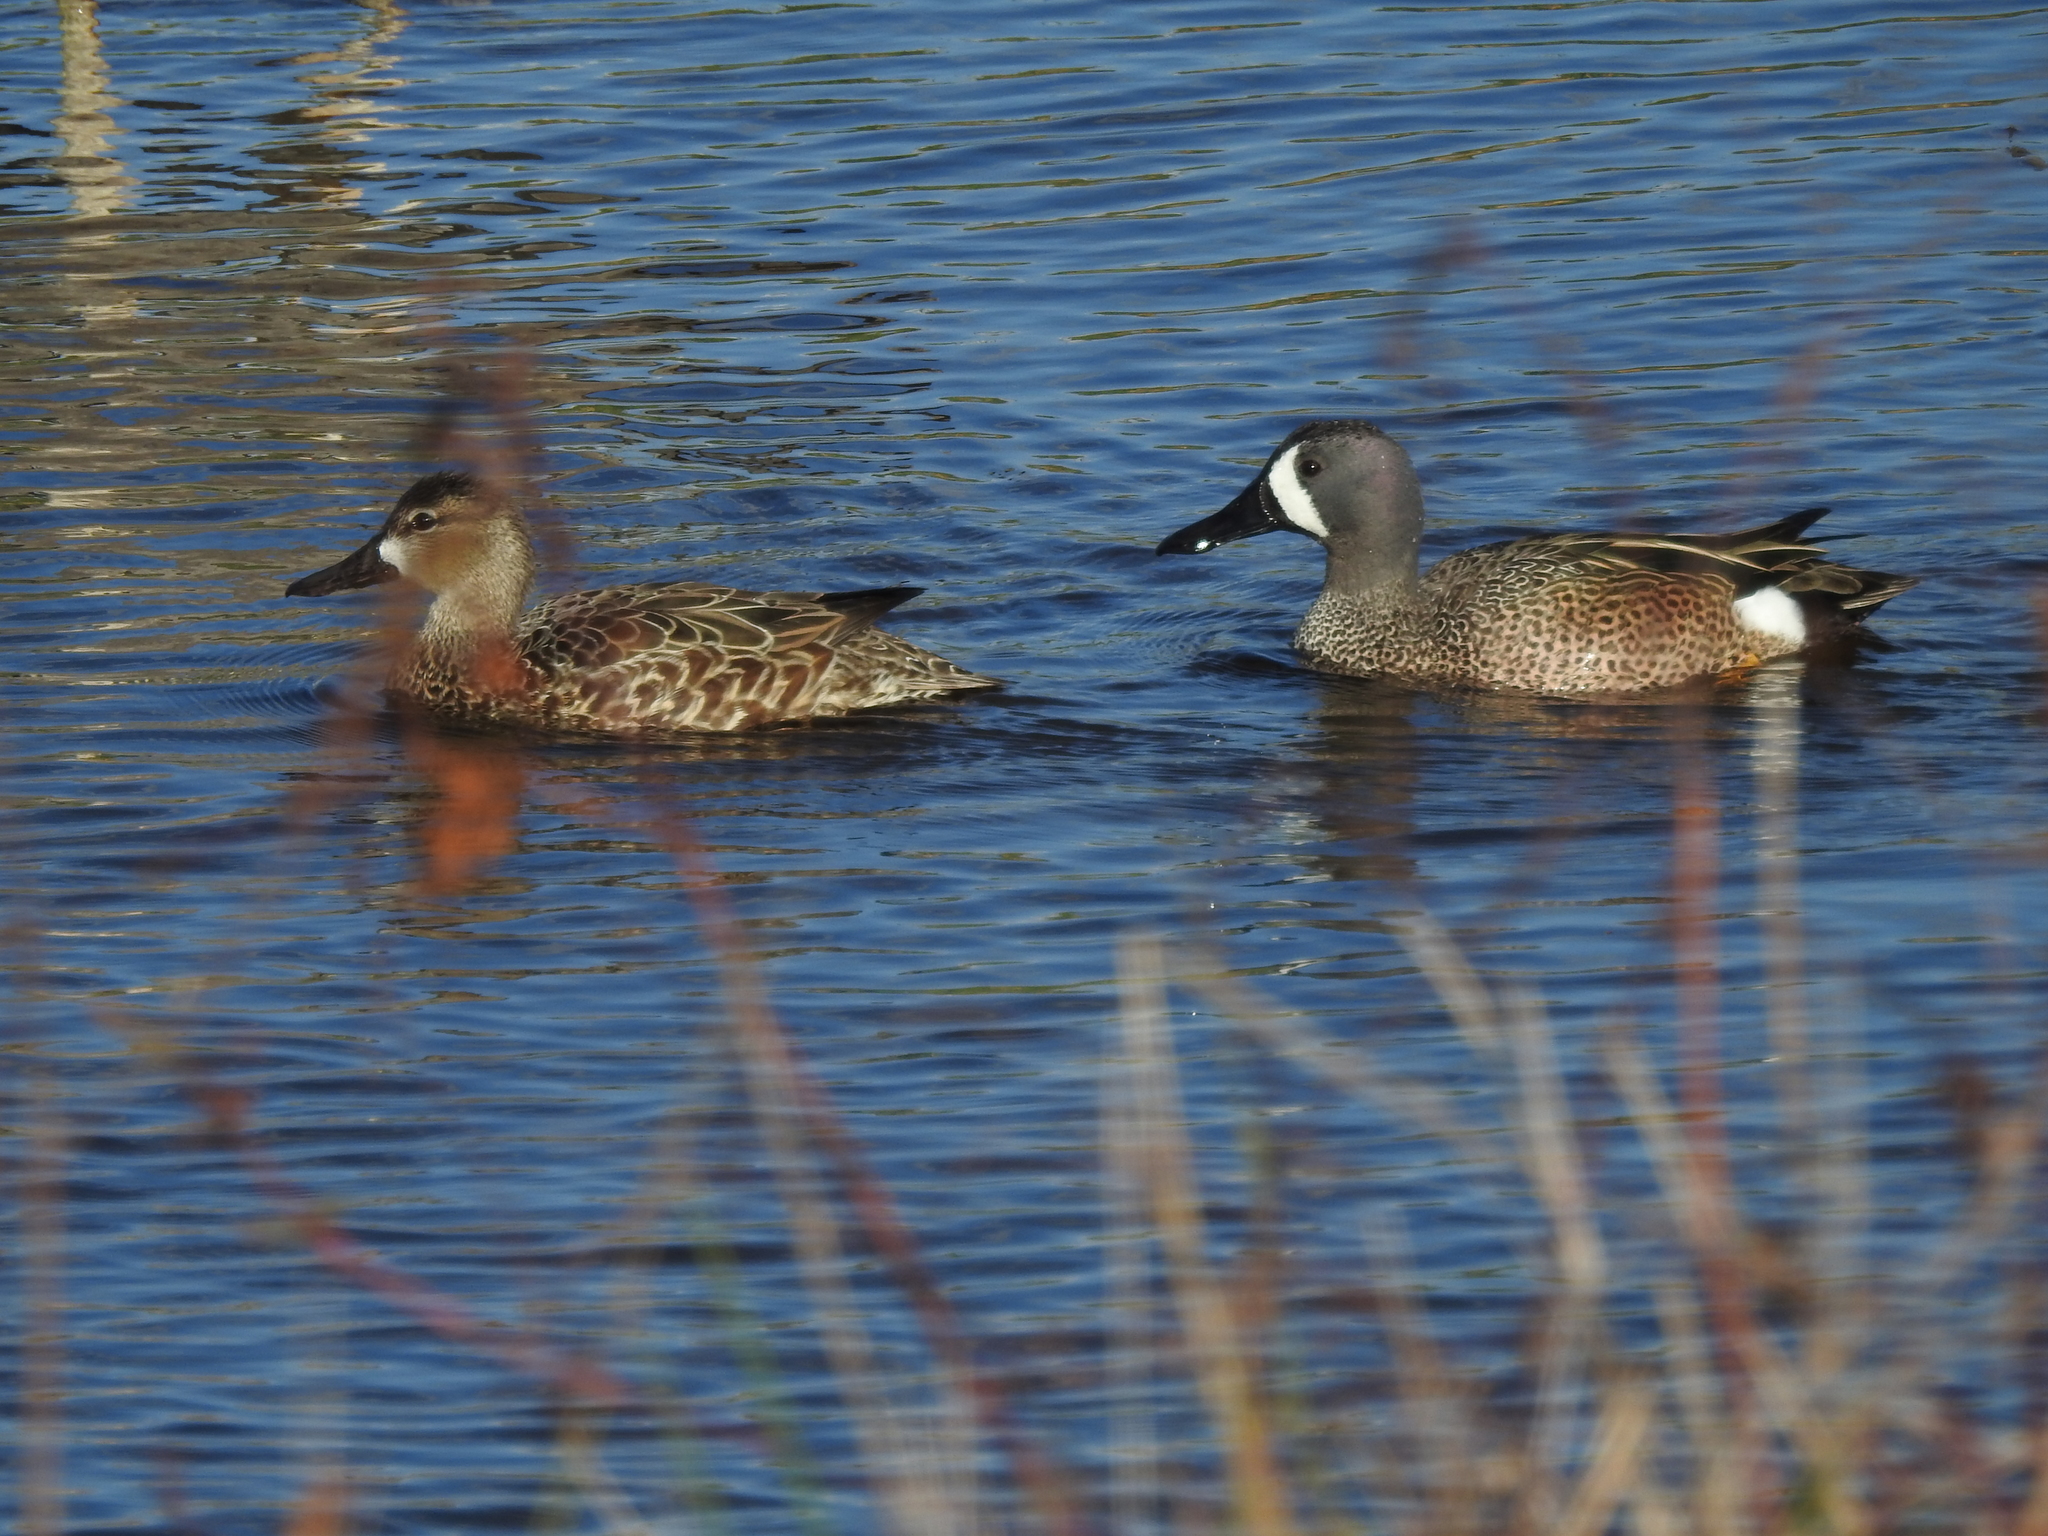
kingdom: Animalia
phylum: Chordata
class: Aves
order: Anseriformes
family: Anatidae
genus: Spatula
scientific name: Spatula discors
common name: Blue-winged teal
